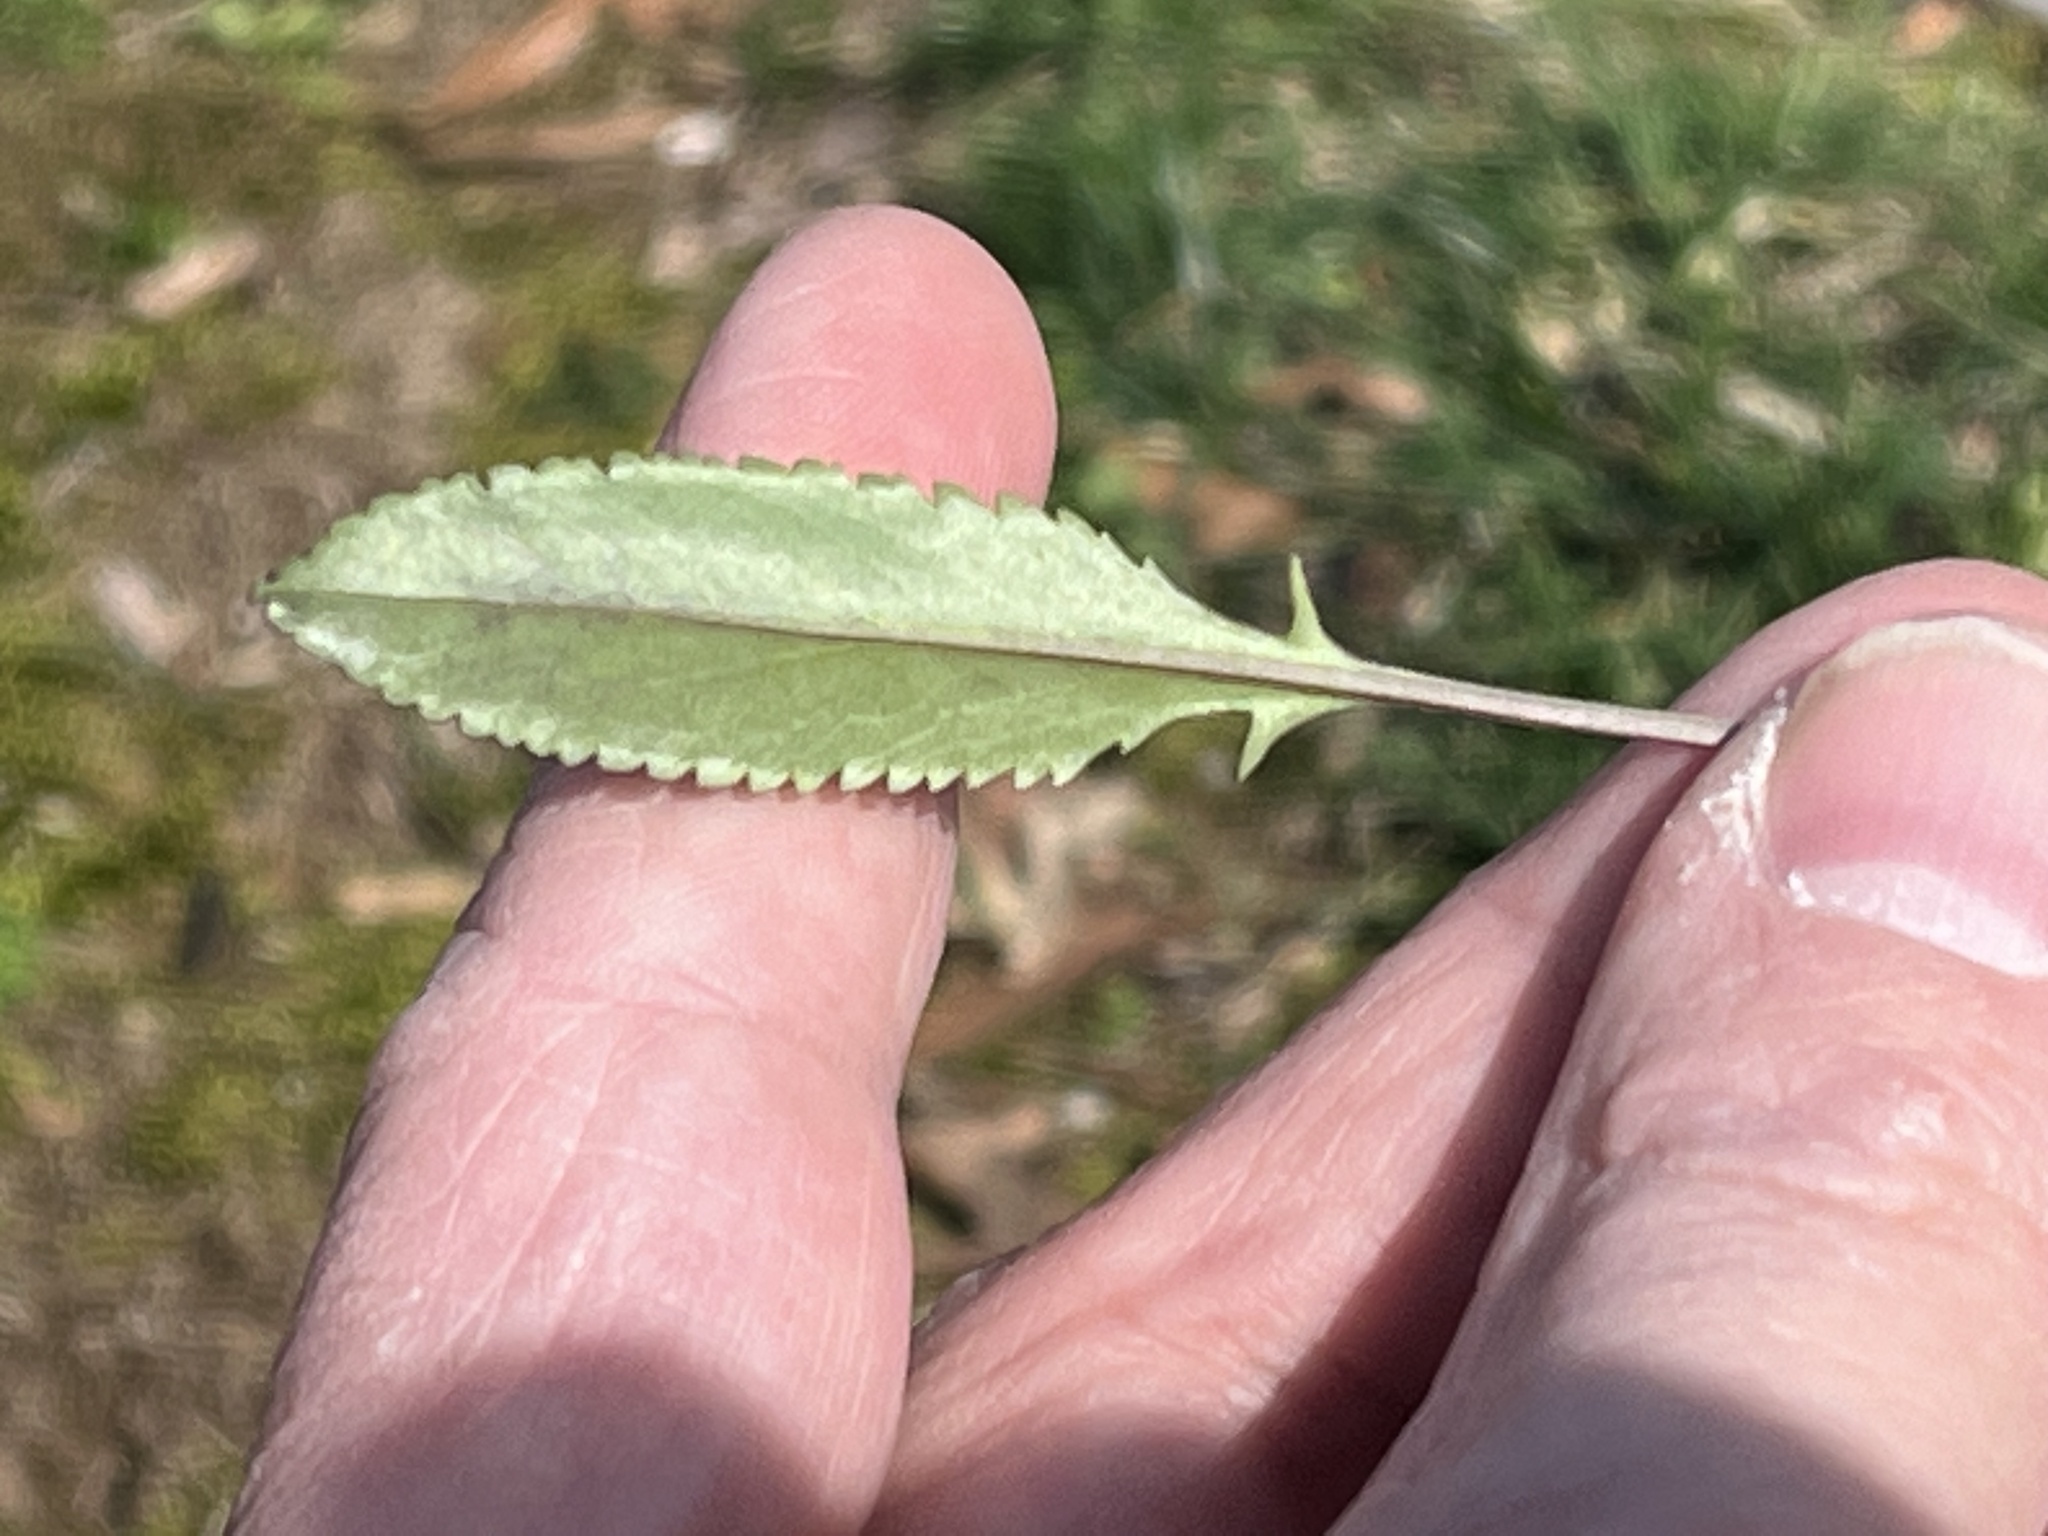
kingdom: Plantae
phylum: Tracheophyta
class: Magnoliopsida
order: Asterales
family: Asteraceae
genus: Packera
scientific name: Packera anonyma
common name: Small ragwort
